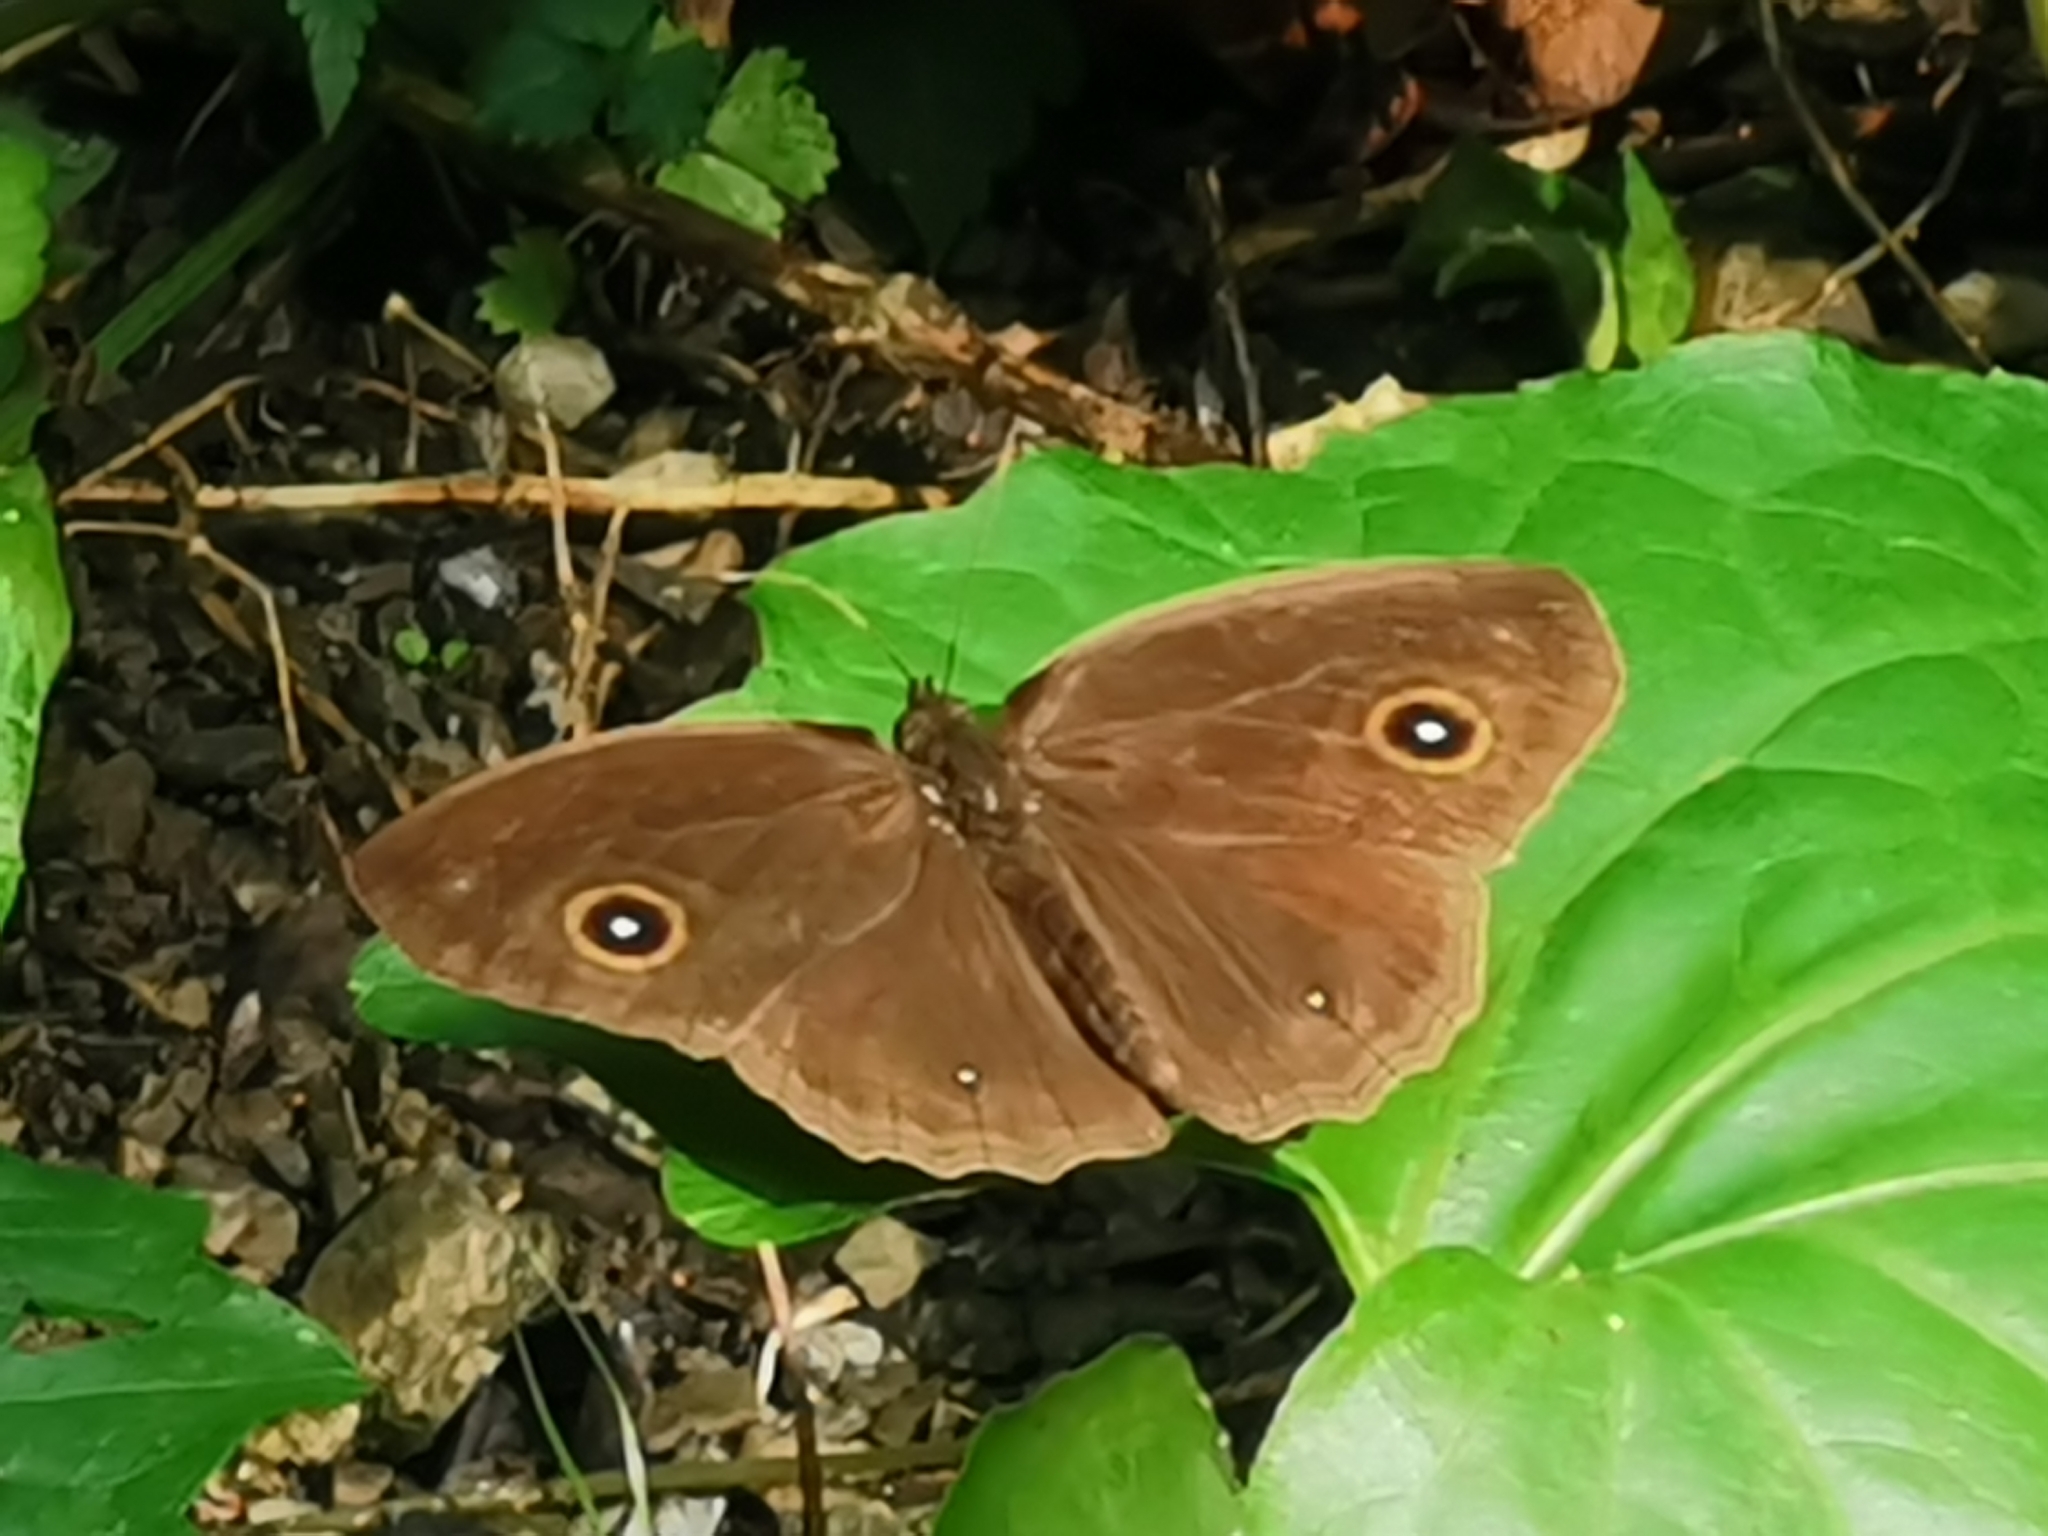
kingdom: Animalia
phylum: Arthropoda
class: Insecta
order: Lepidoptera
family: Nymphalidae
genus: Mycalesis
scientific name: Mycalesis horsfieldii
